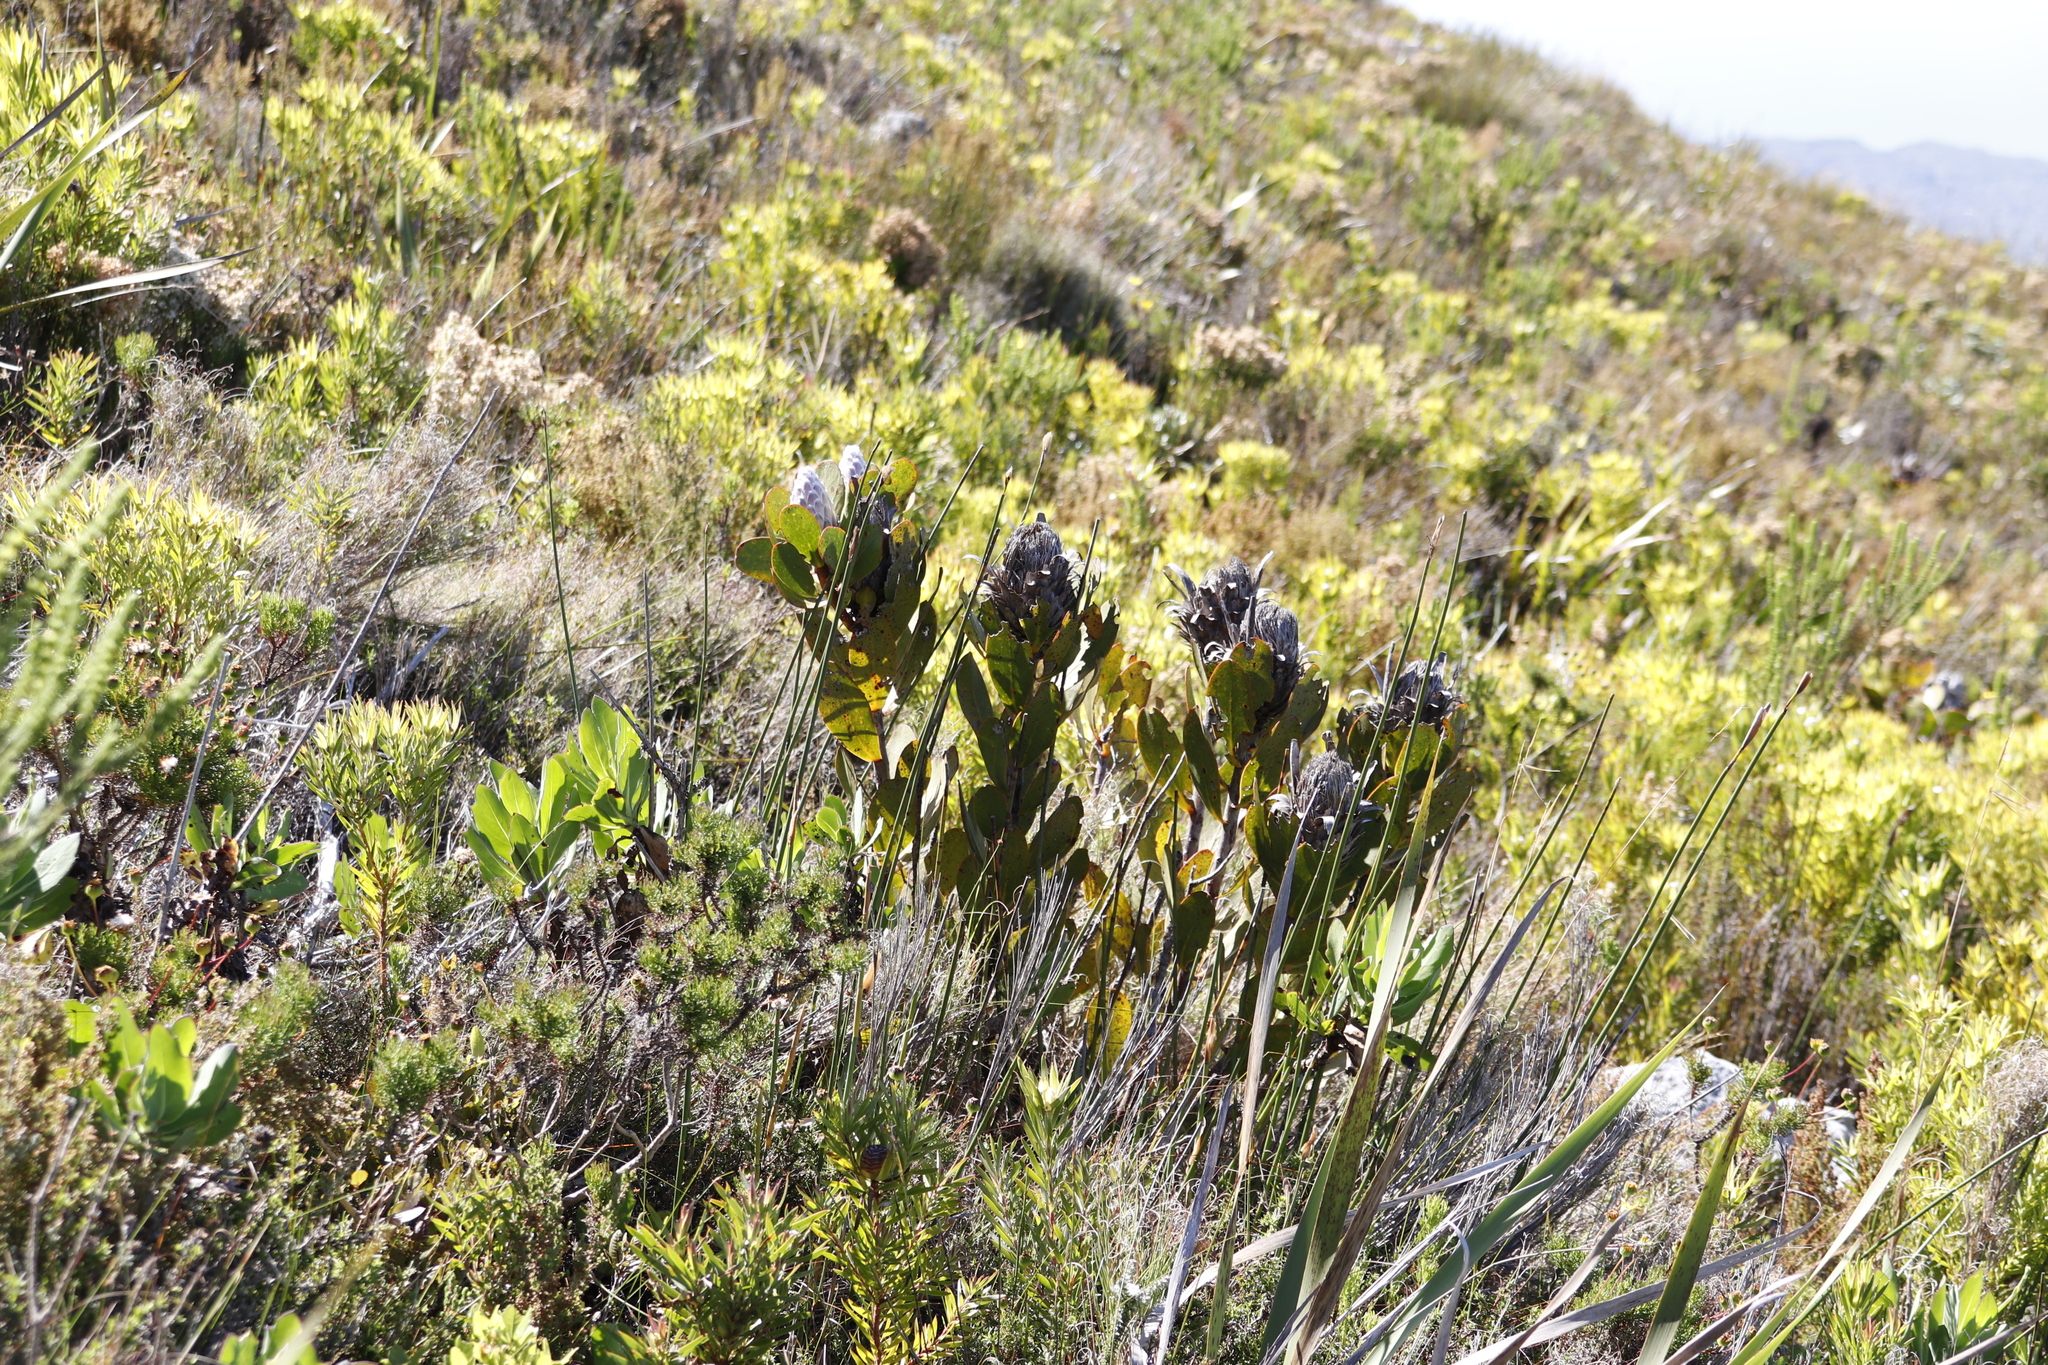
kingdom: Plantae
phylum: Tracheophyta
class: Magnoliopsida
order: Proteales
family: Proteaceae
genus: Protea
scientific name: Protea speciosa
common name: Brown-beard sugarbush
